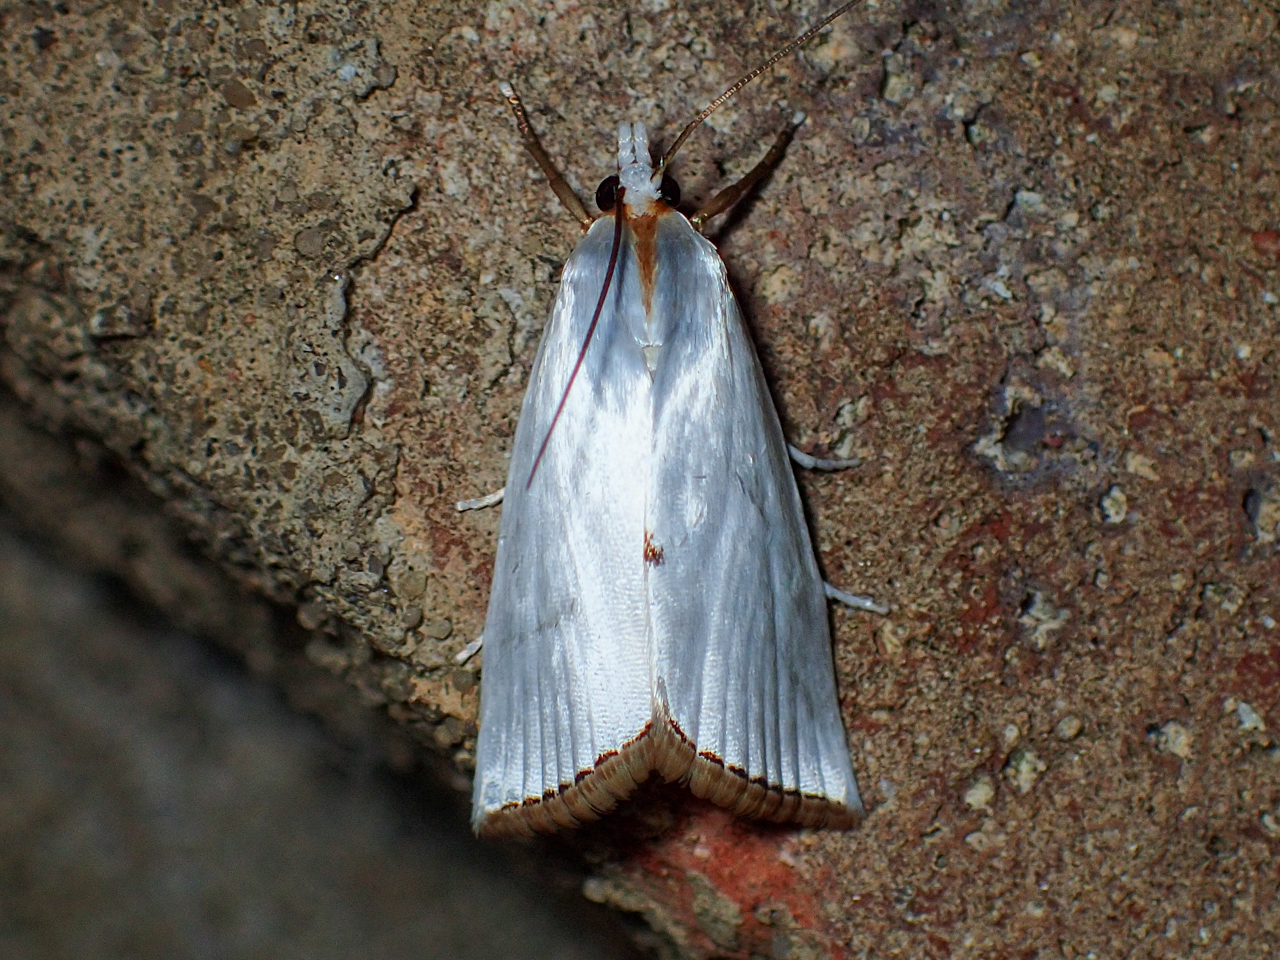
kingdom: Animalia
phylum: Arthropoda
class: Insecta
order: Lepidoptera
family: Crambidae
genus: Argyria
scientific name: Argyria nivalis
